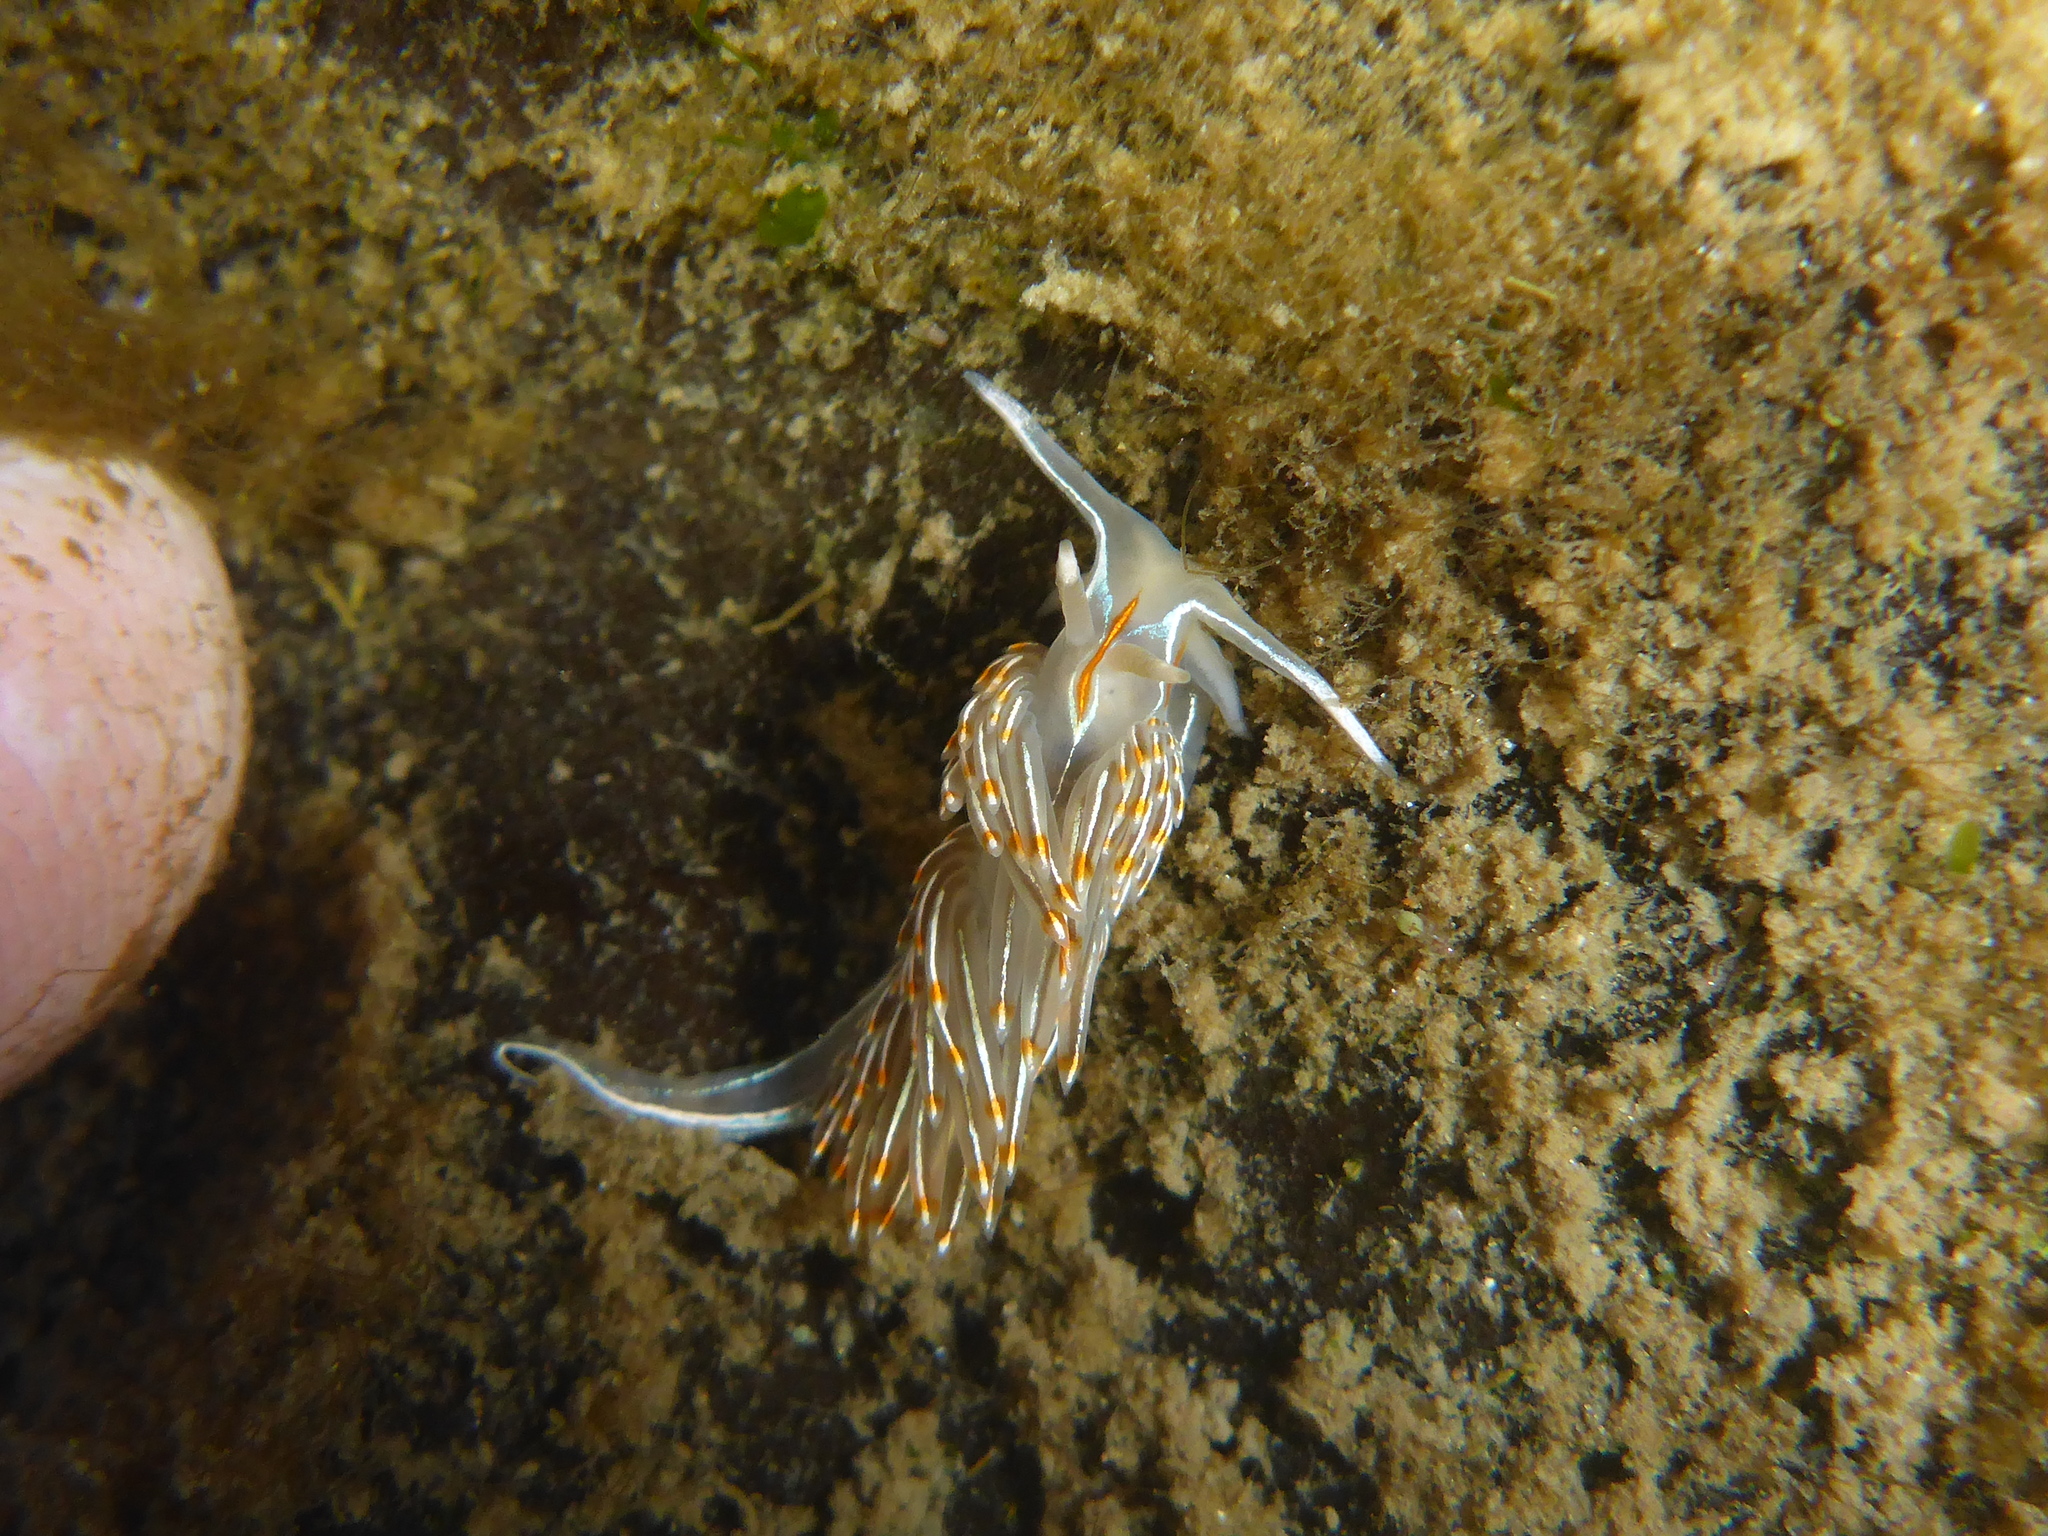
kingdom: Animalia
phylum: Mollusca
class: Gastropoda
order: Nudibranchia
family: Myrrhinidae
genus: Hermissenda
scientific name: Hermissenda crassicornis
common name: Hermissenda
